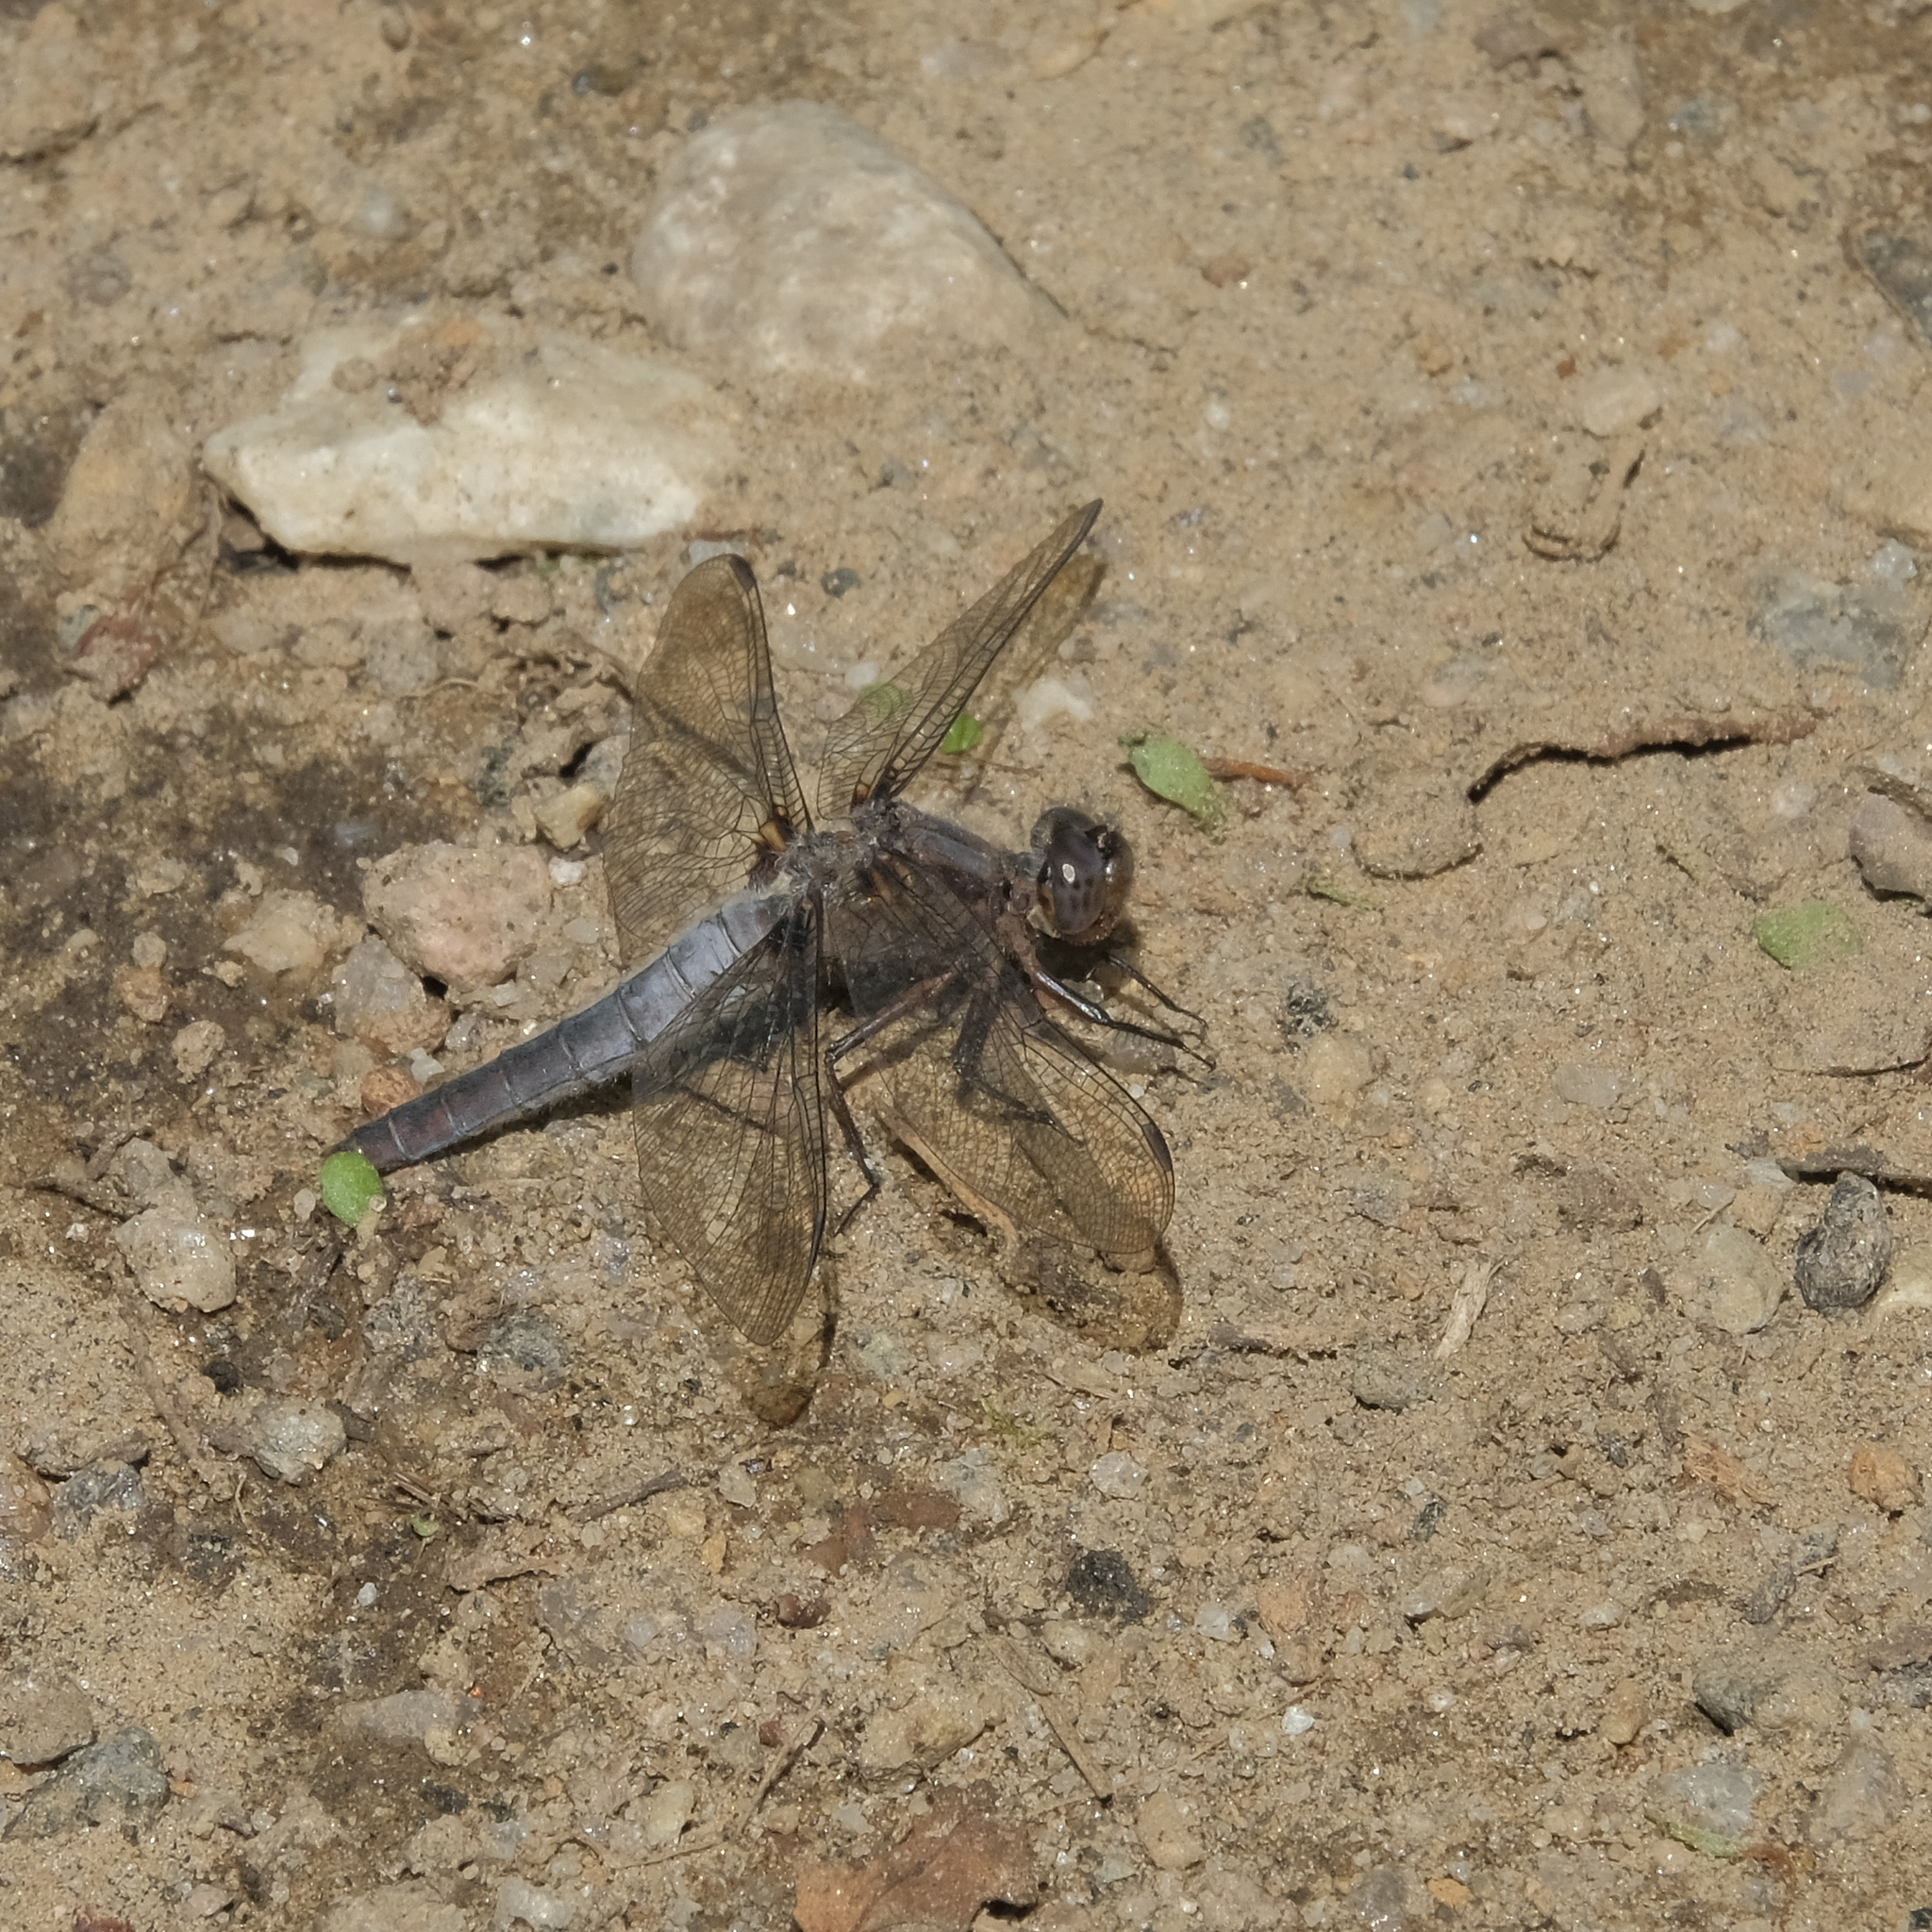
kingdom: Animalia
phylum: Arthropoda
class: Insecta
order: Odonata
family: Libellulidae
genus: Ladona
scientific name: Ladona julia
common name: Chalk-fronted corporal
